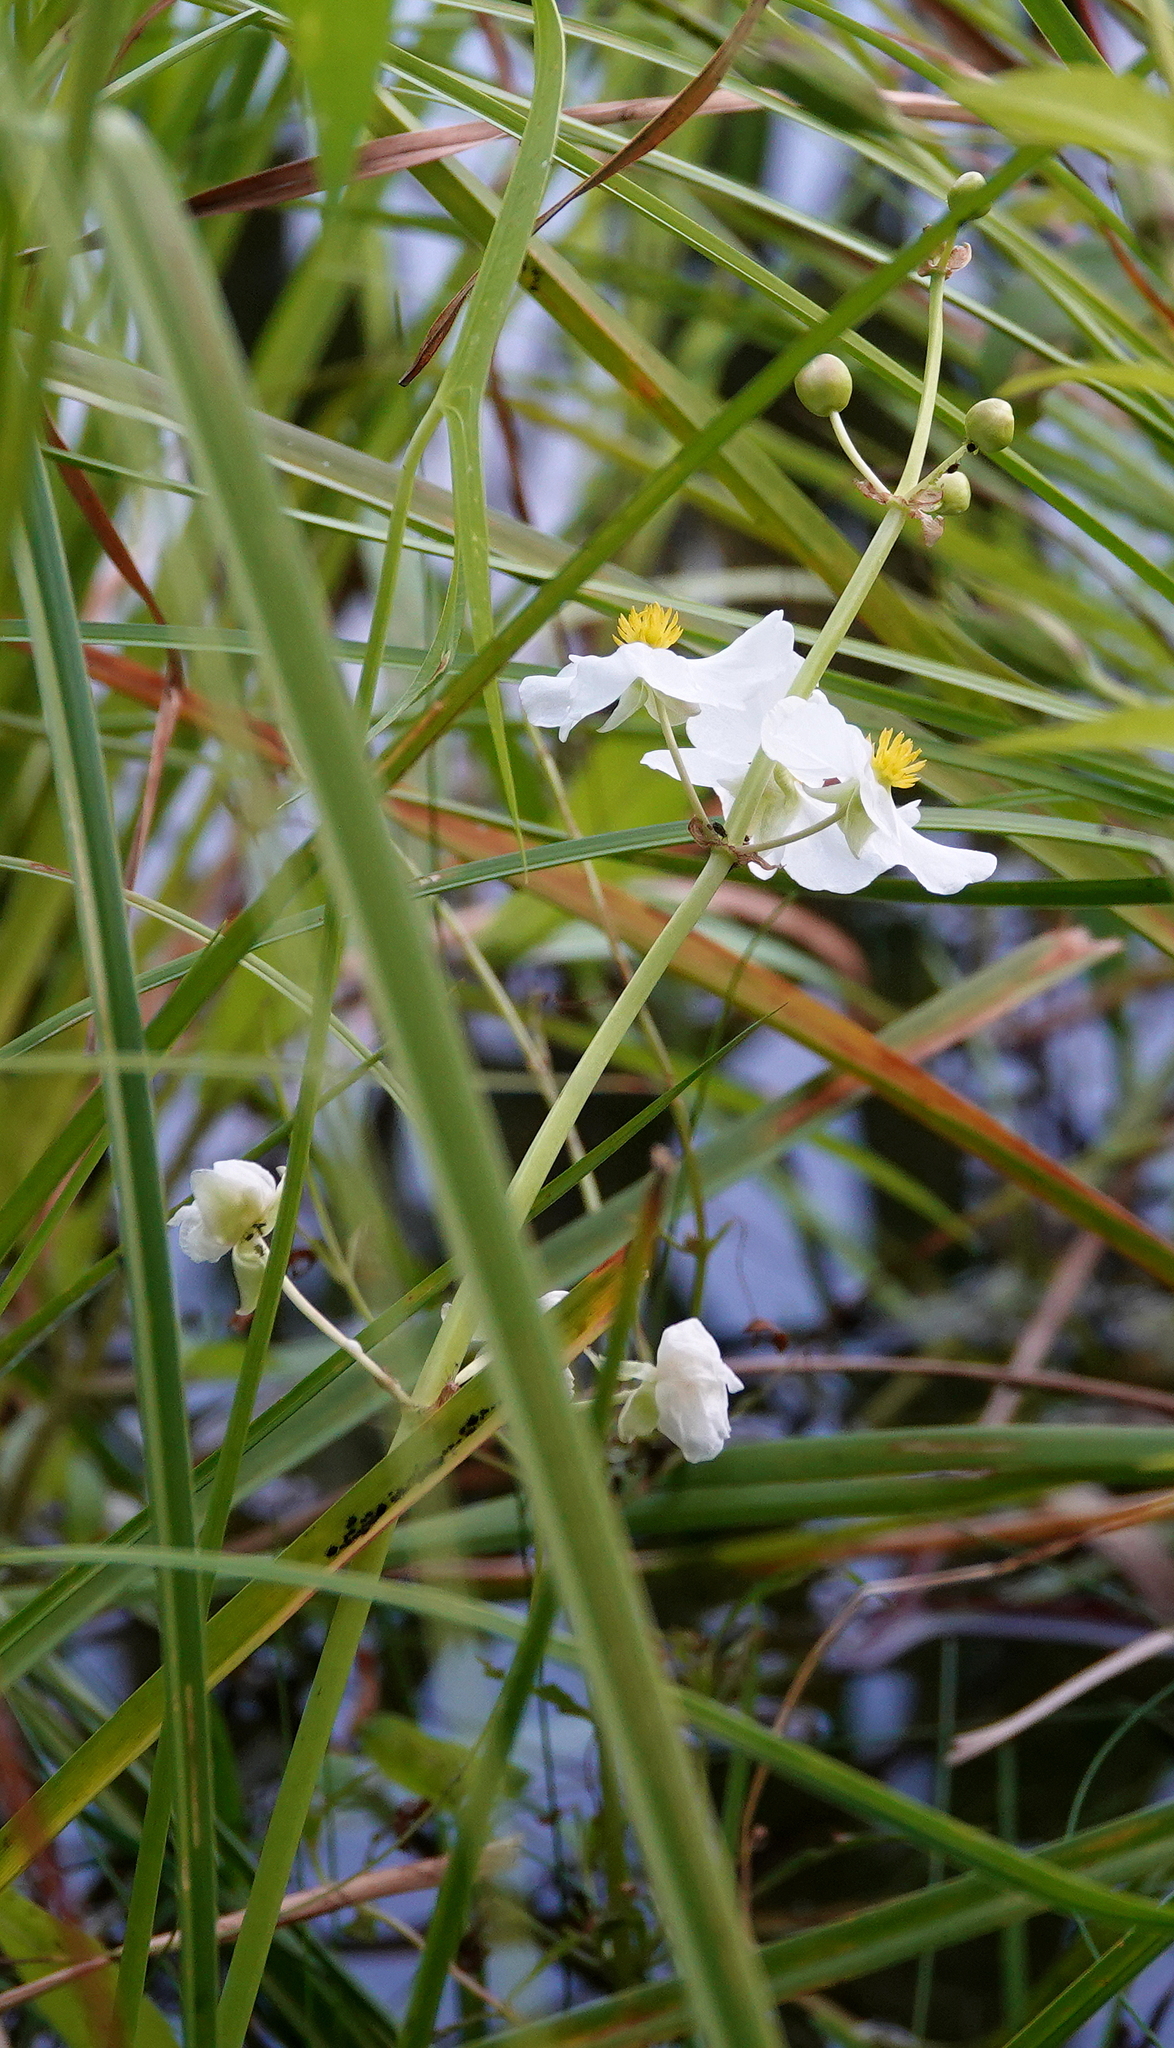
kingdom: Plantae
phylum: Tracheophyta
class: Liliopsida
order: Alismatales
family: Alismataceae
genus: Sagittaria
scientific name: Sagittaria latifolia
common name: Duck-potato
